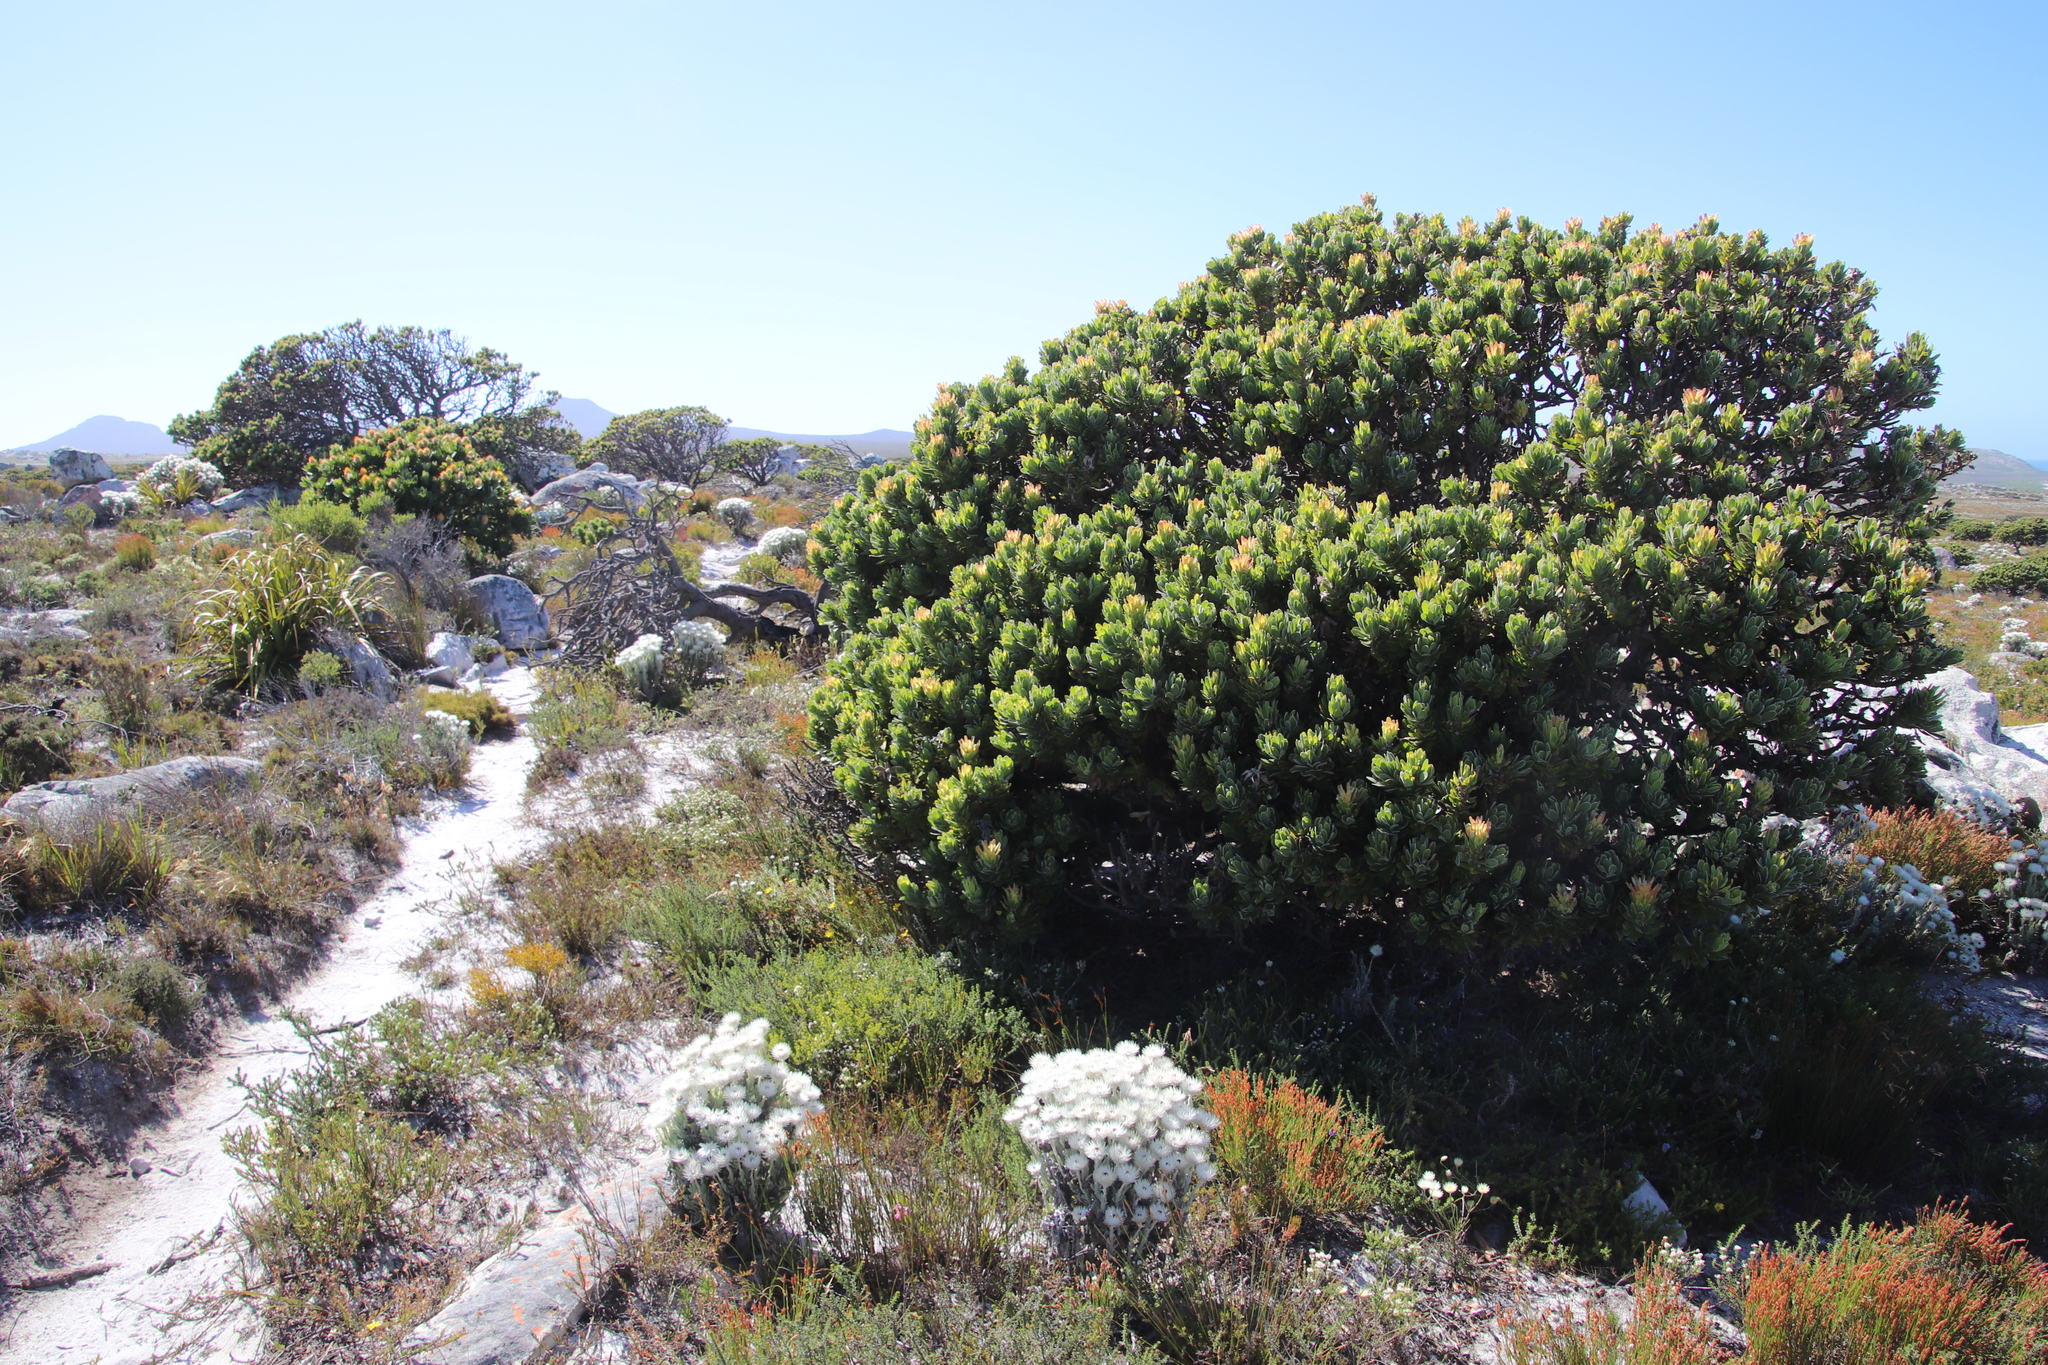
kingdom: Plantae
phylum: Tracheophyta
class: Magnoliopsida
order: Proteales
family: Proteaceae
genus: Mimetes
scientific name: Mimetes fimbriifolius
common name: Fringed bottlebrush
